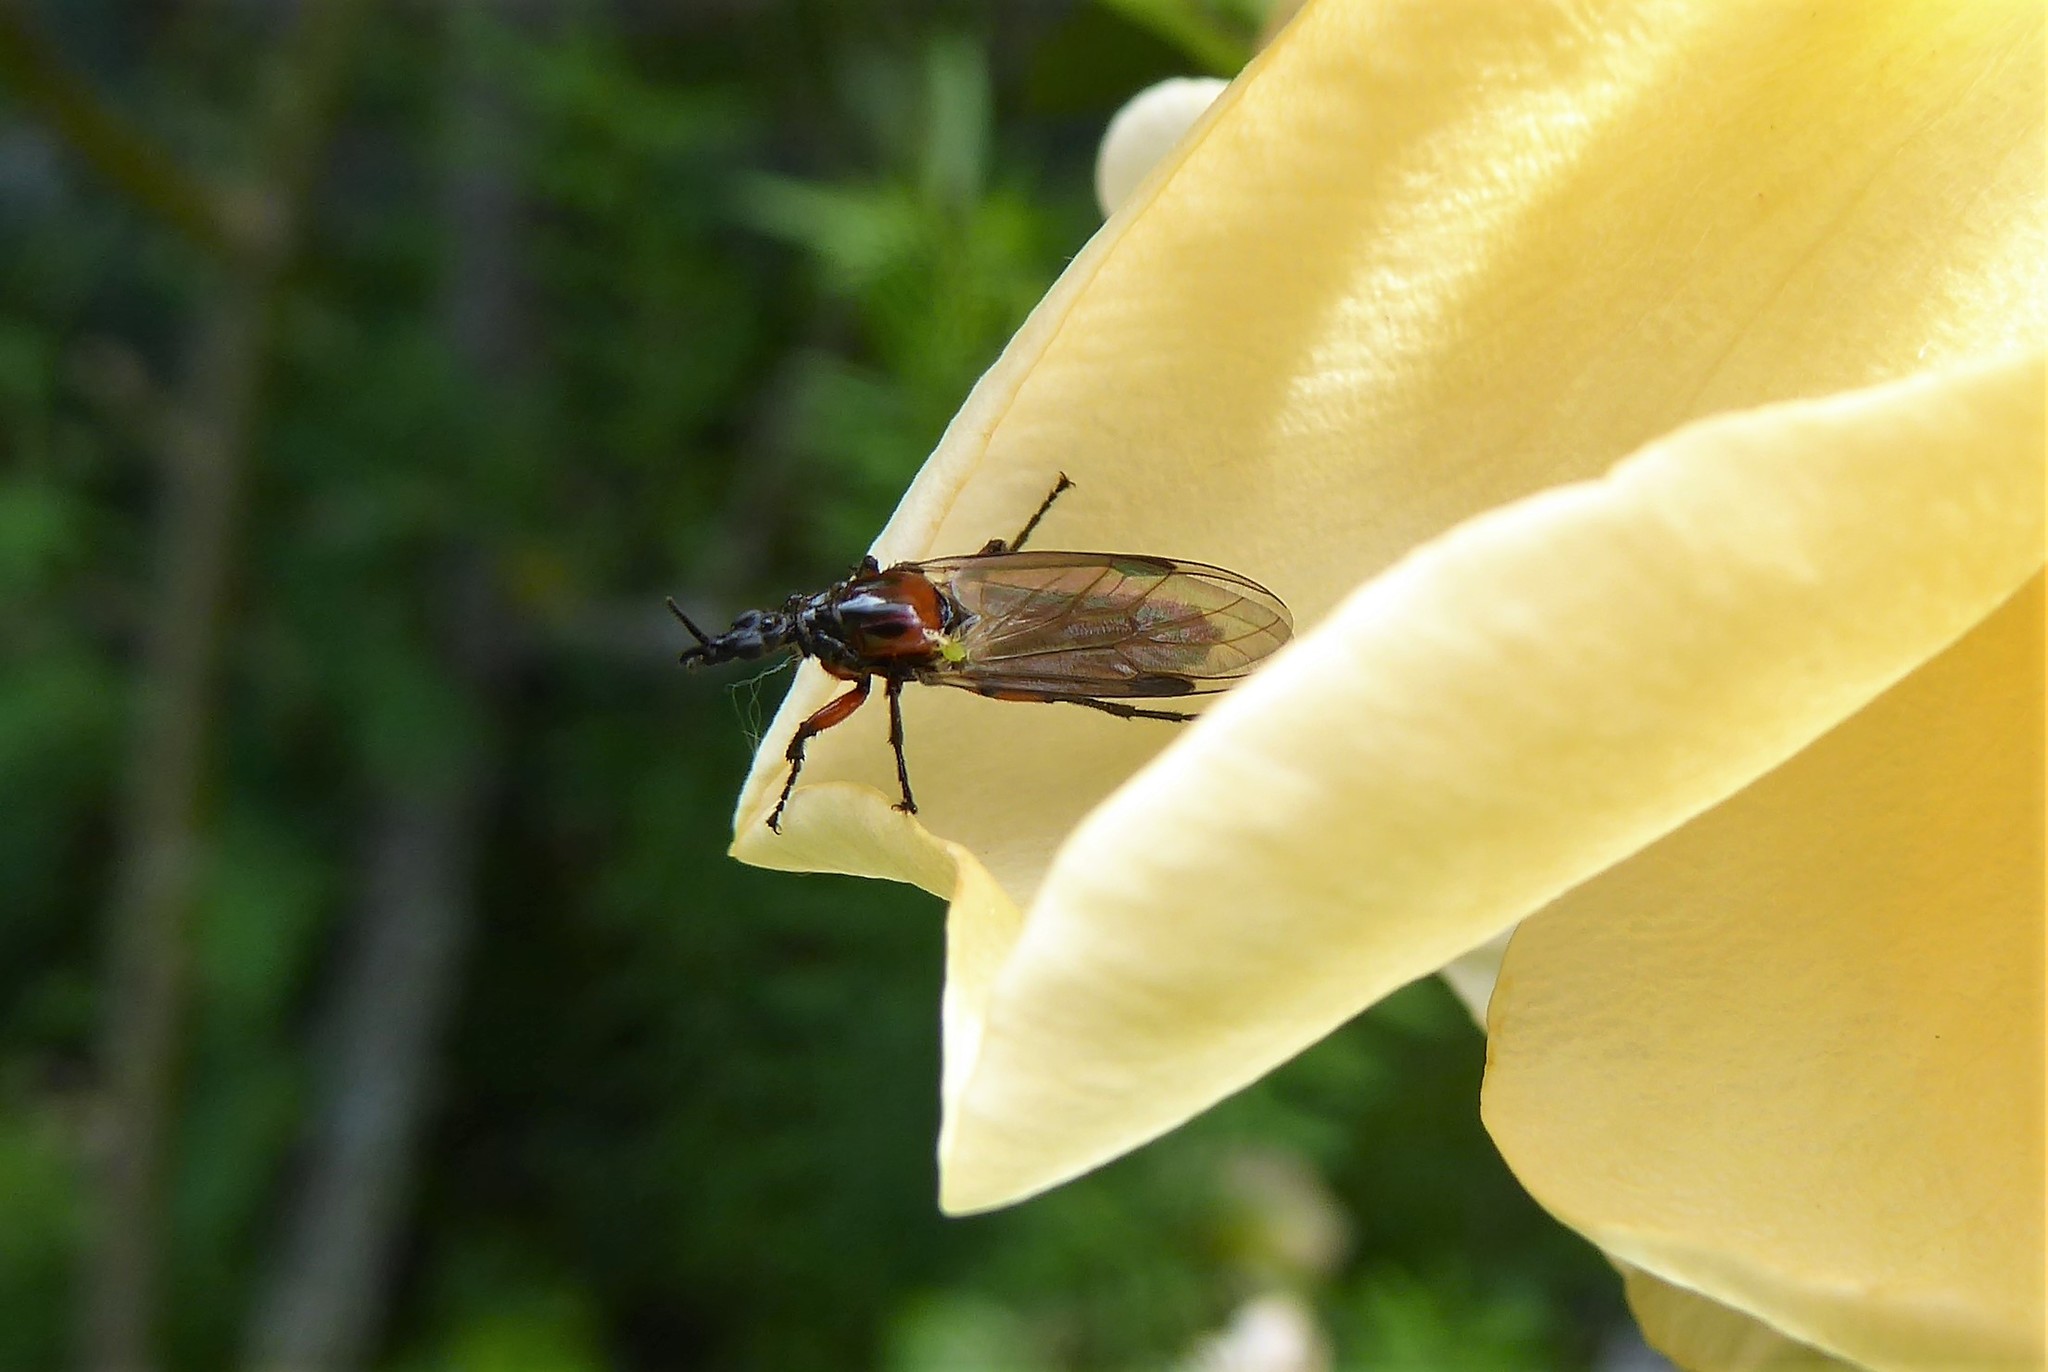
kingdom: Animalia
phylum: Arthropoda
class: Insecta
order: Diptera
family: Bibionidae
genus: Dilophus
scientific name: Dilophus nigrostigma
